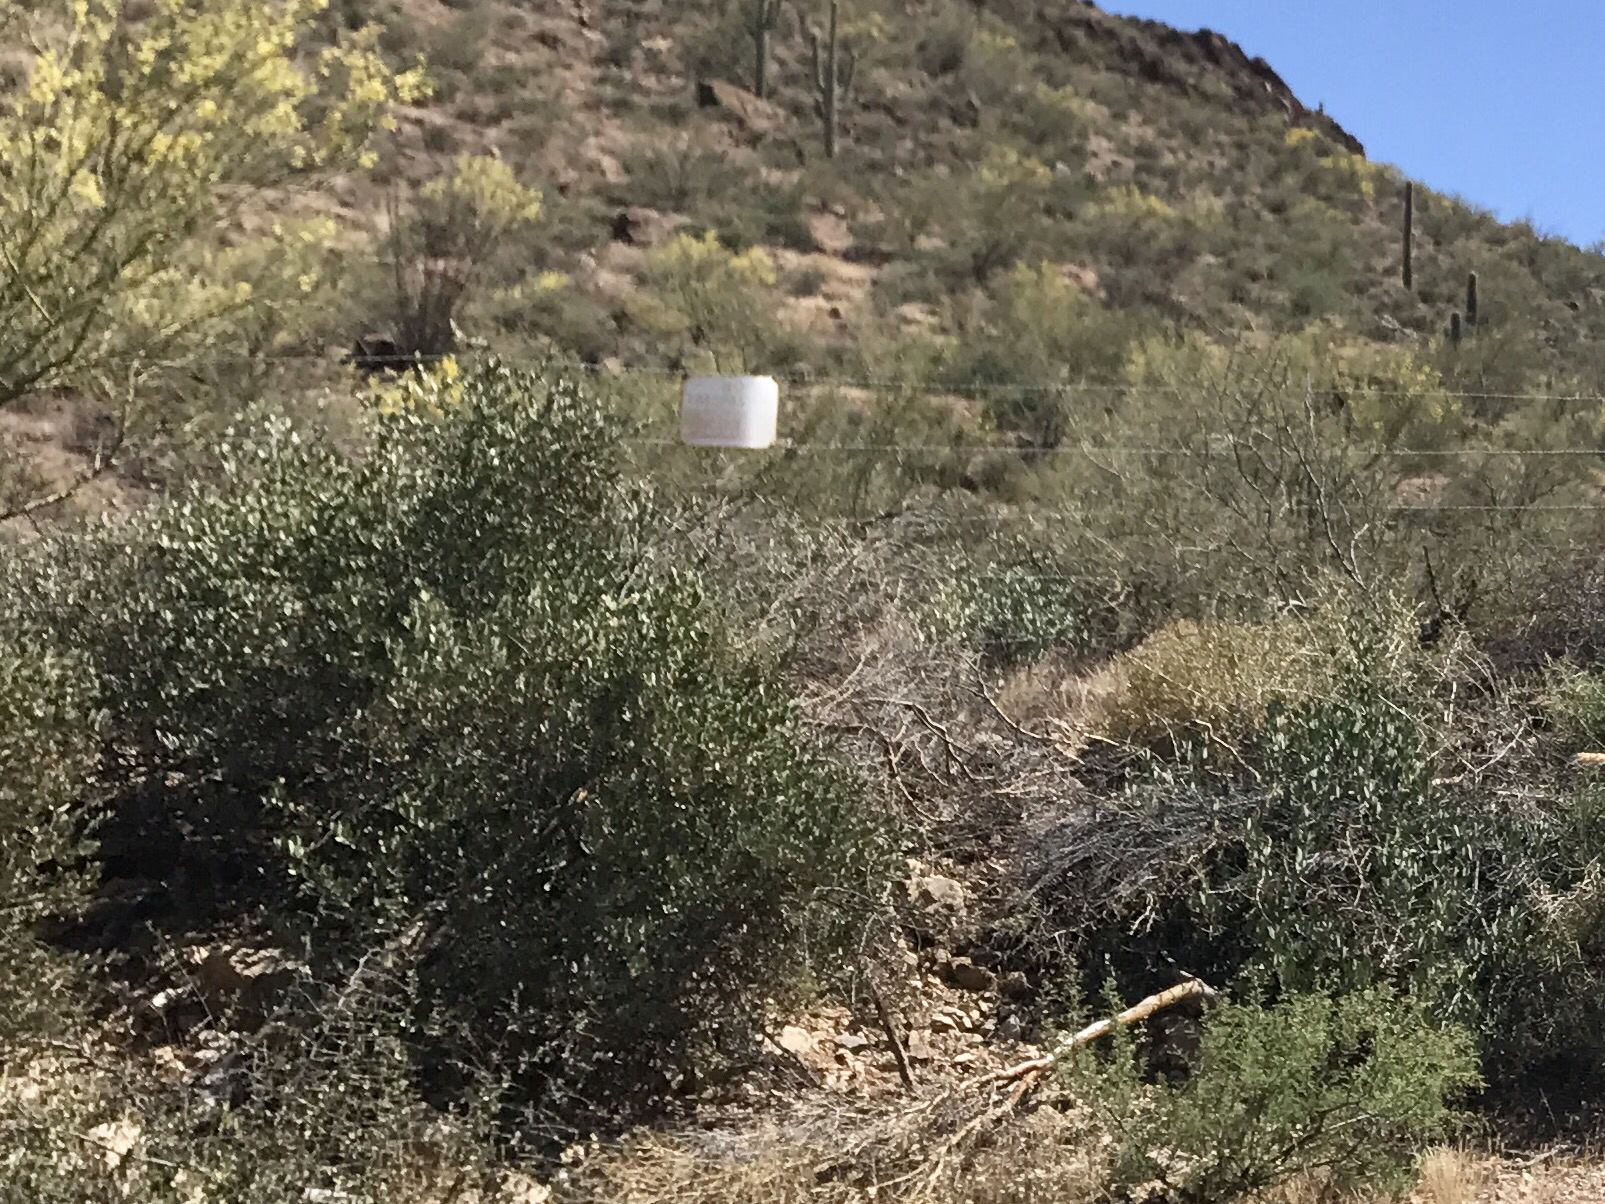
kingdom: Plantae
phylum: Tracheophyta
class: Magnoliopsida
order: Caryophyllales
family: Simmondsiaceae
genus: Simmondsia
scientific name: Simmondsia chinensis
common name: Jojoba
